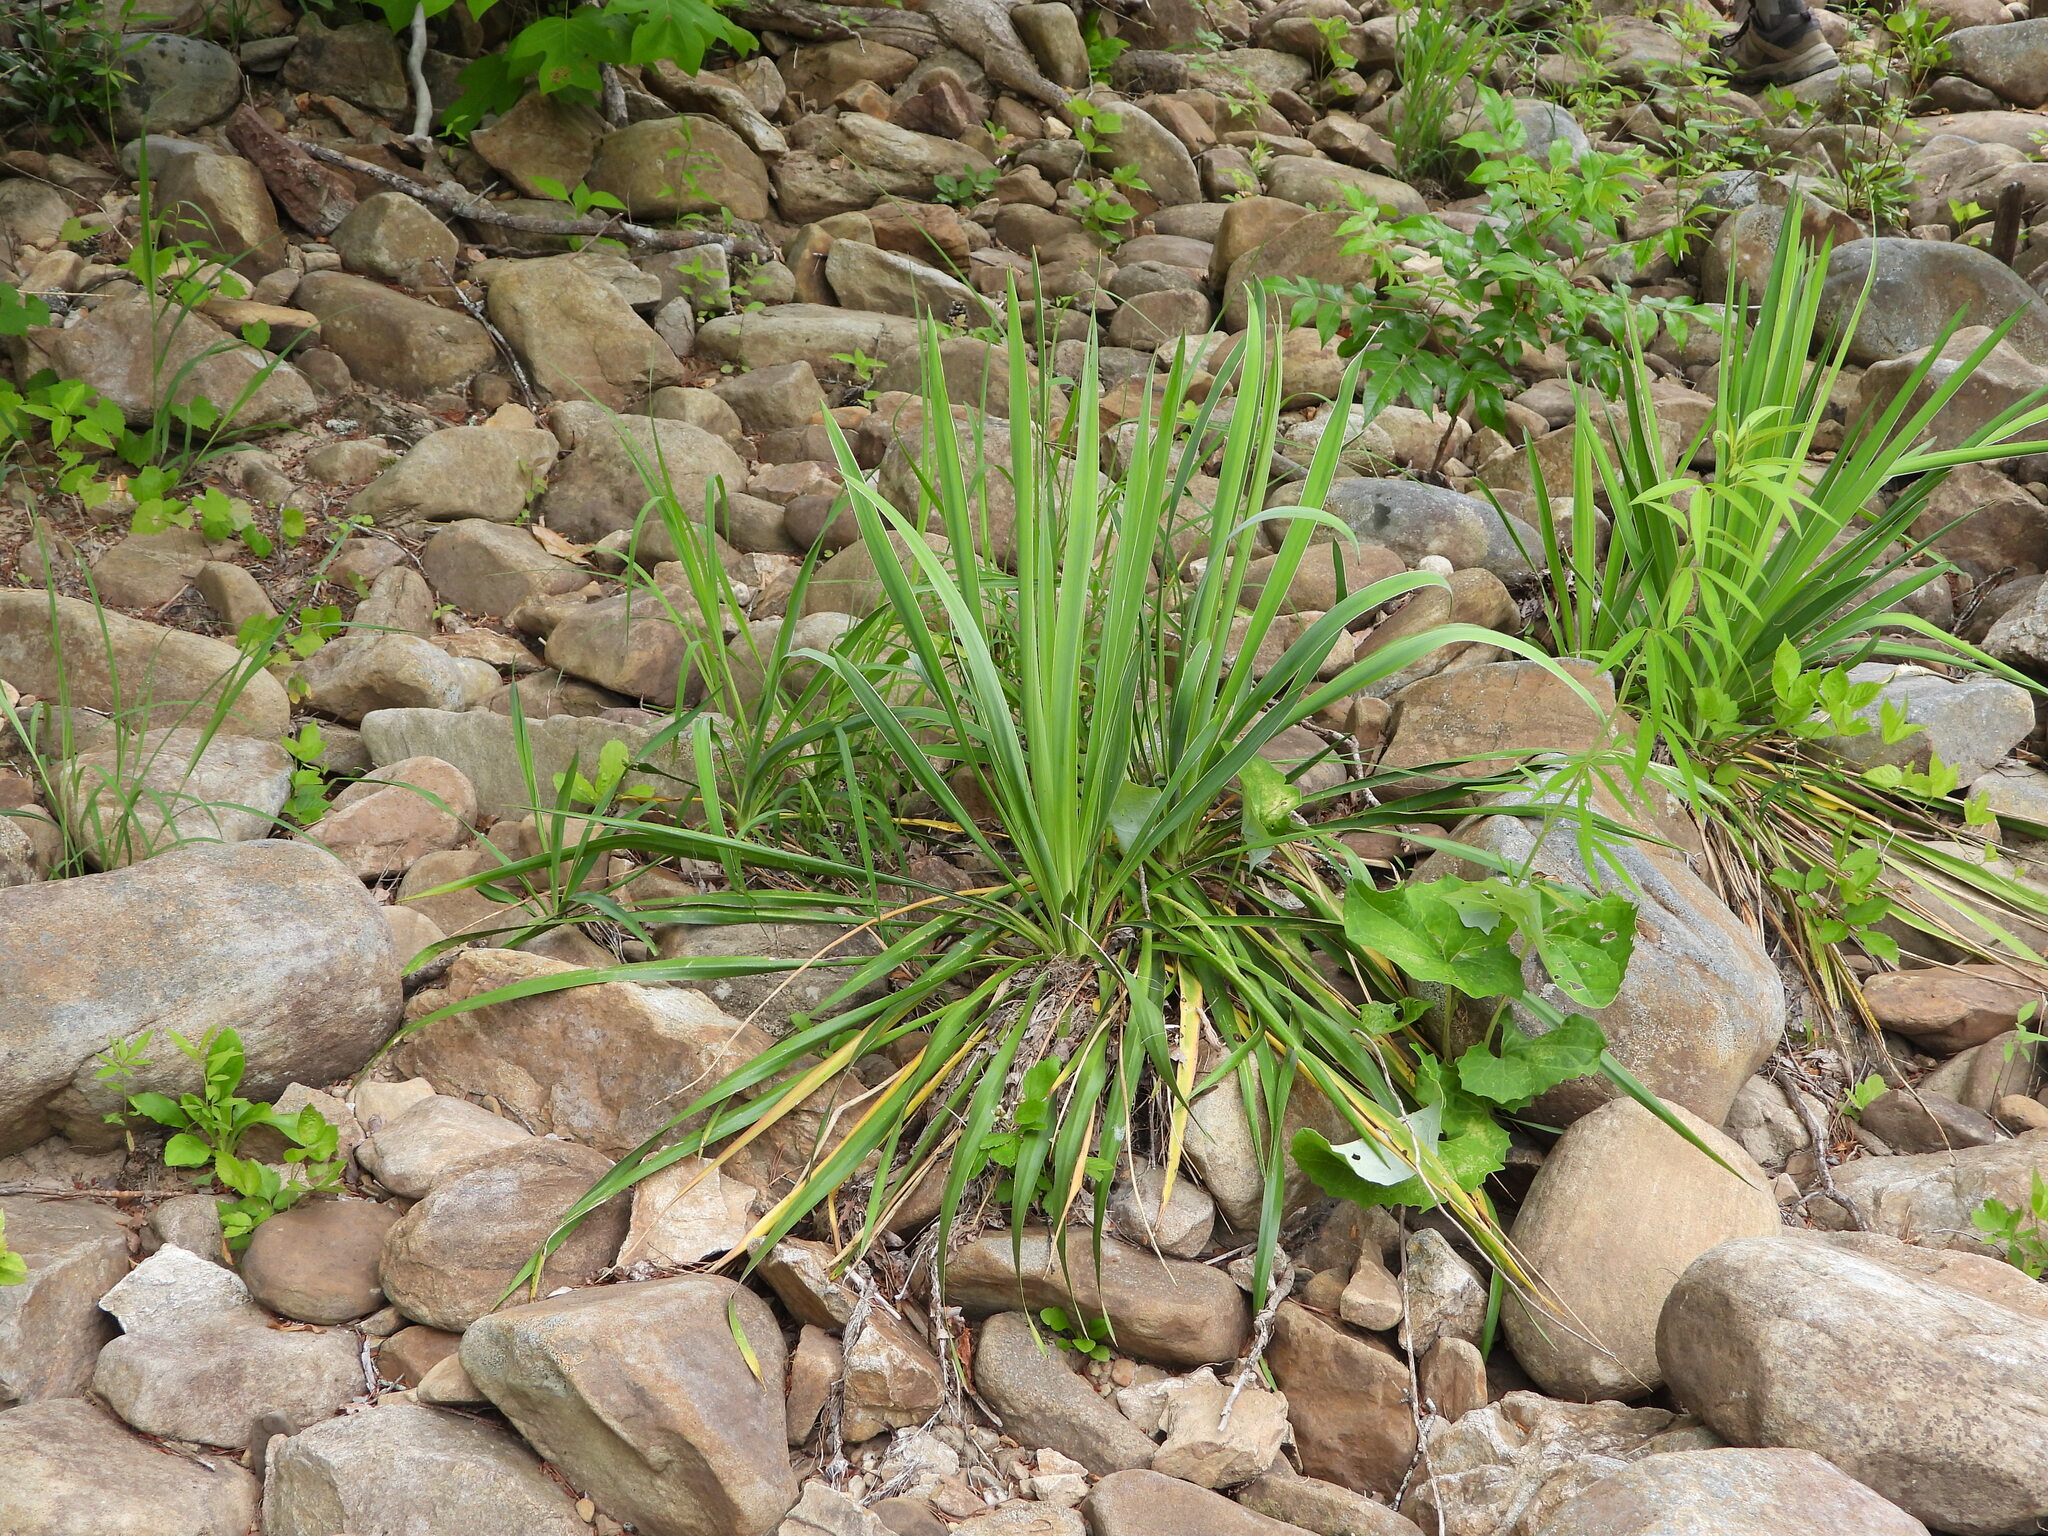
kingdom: Plantae
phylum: Tracheophyta
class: Liliopsida
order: Asparagales
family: Asparagaceae
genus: Yucca
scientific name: Yucca filamentosa
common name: Adam's-needle
